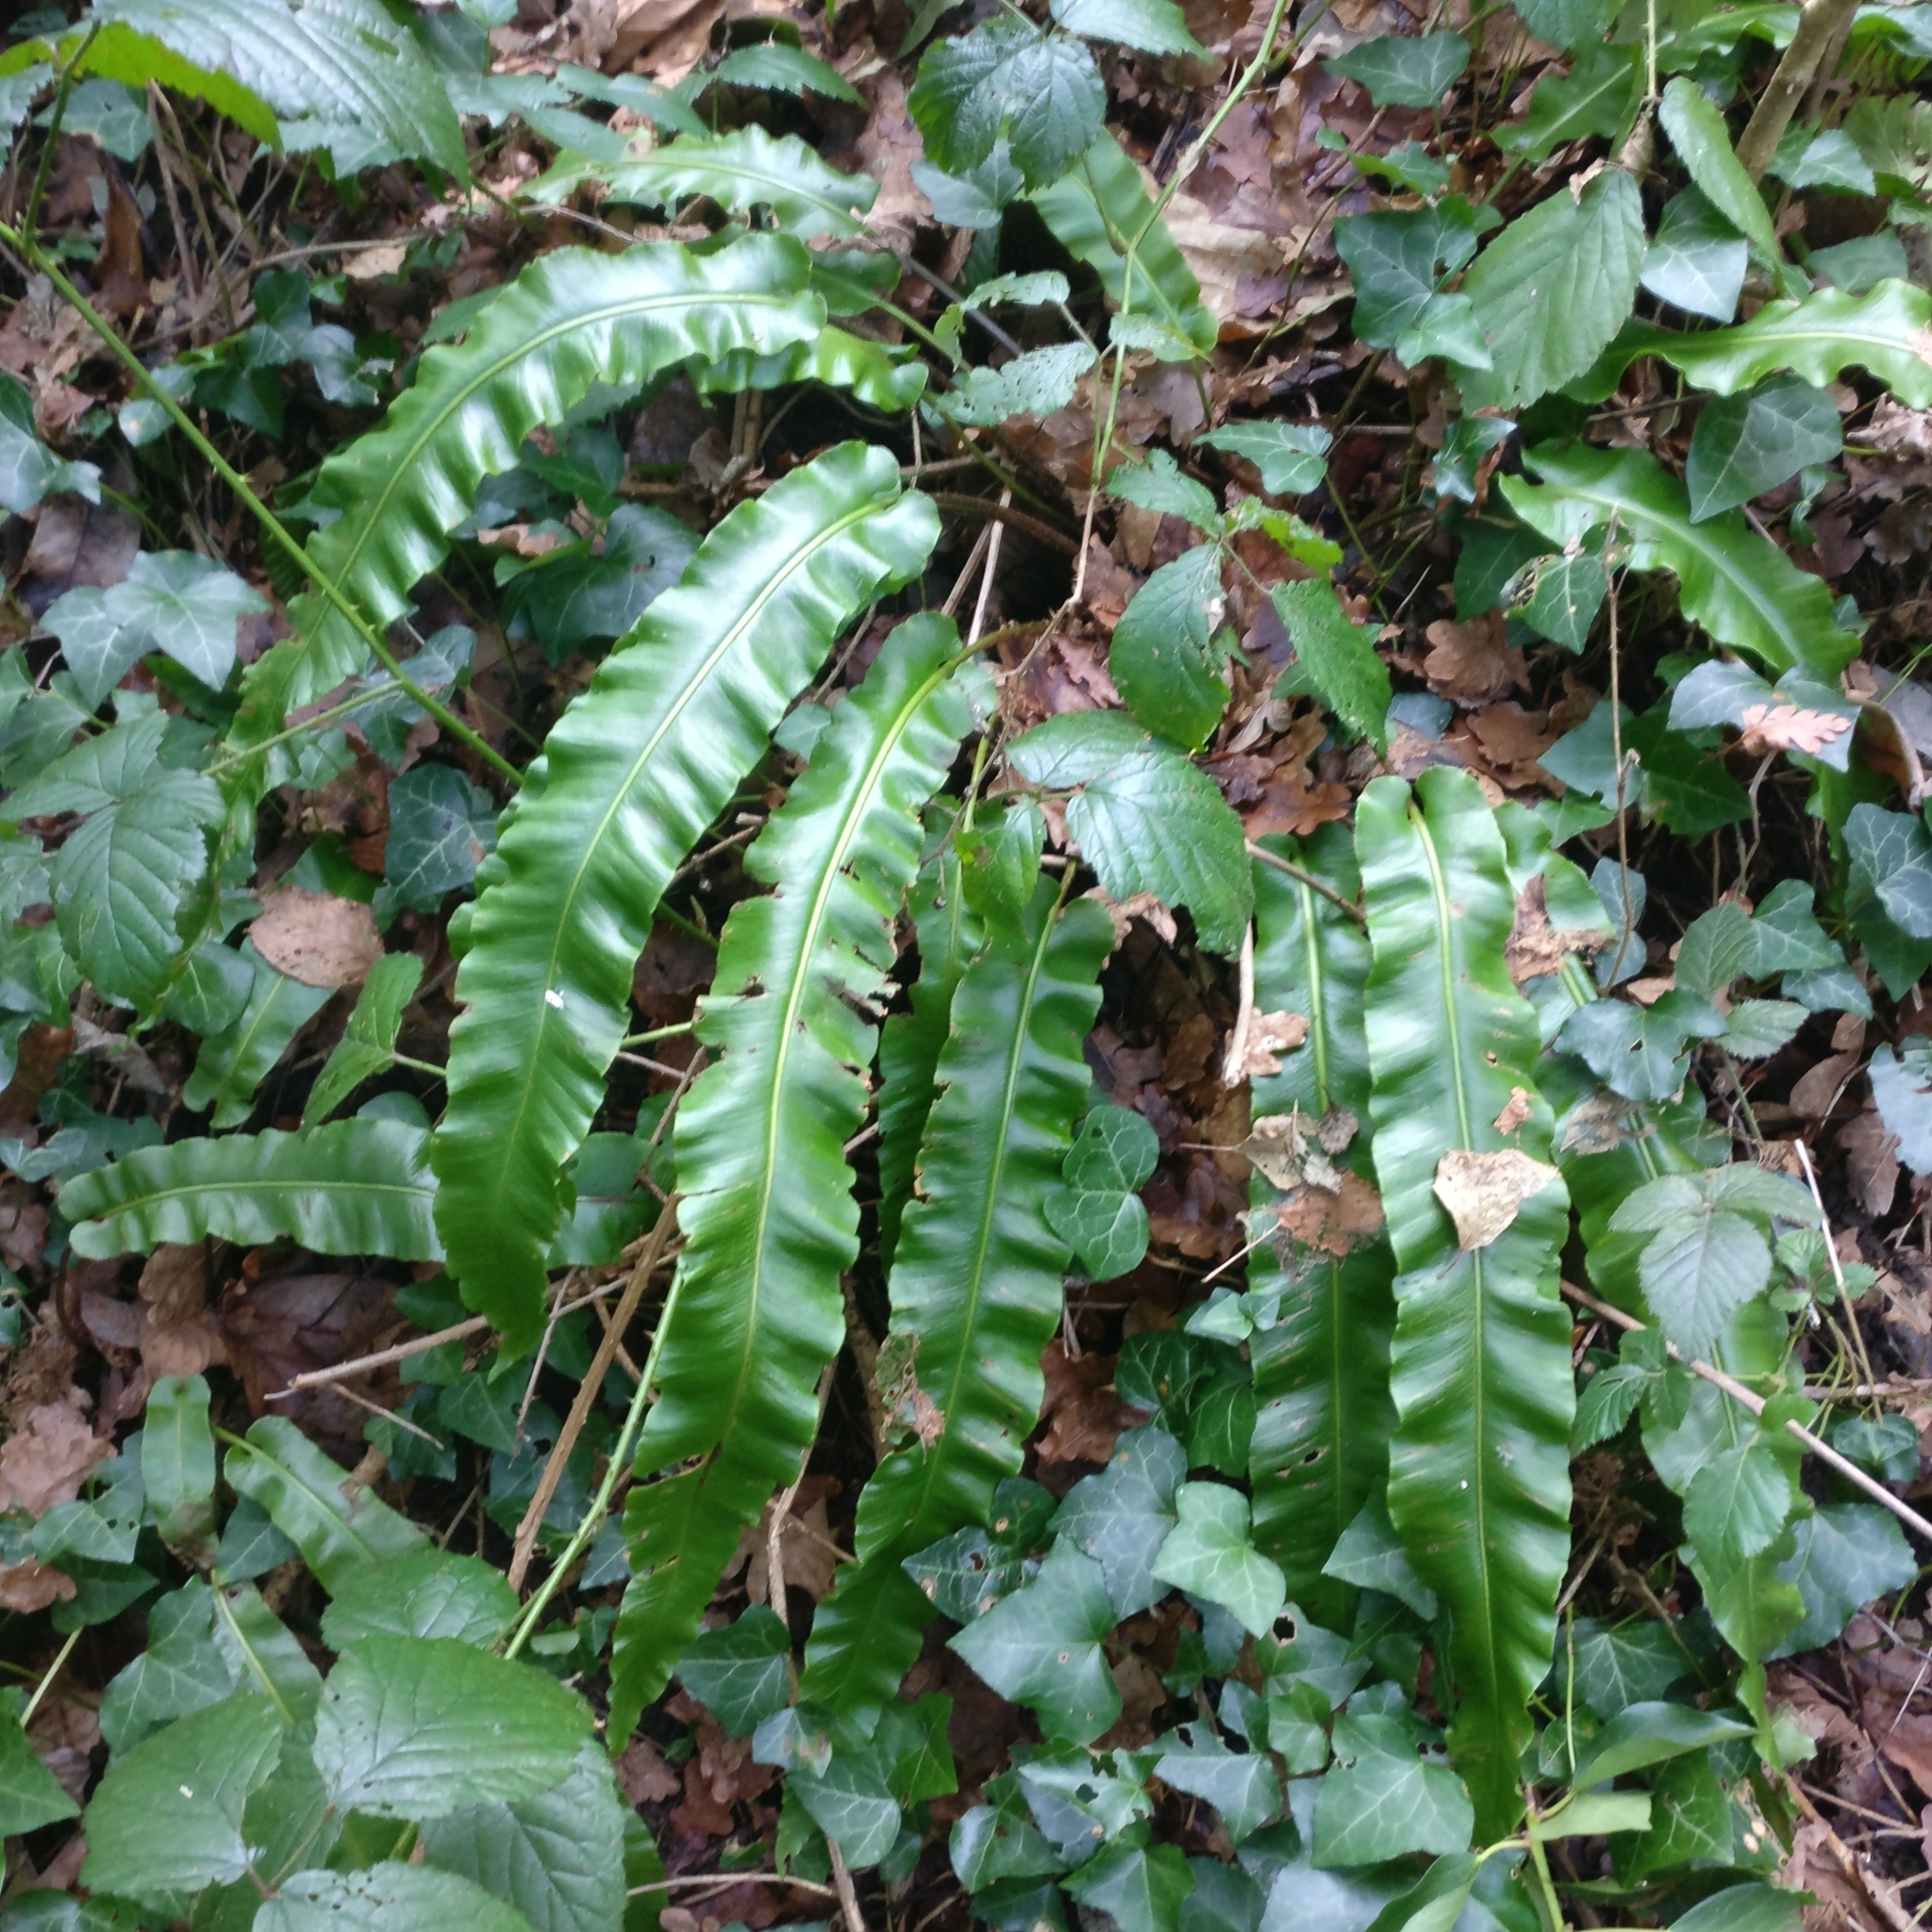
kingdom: Plantae
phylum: Tracheophyta
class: Polypodiopsida
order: Polypodiales
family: Aspleniaceae
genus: Asplenium
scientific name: Asplenium scolopendrium
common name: Hart's-tongue fern
